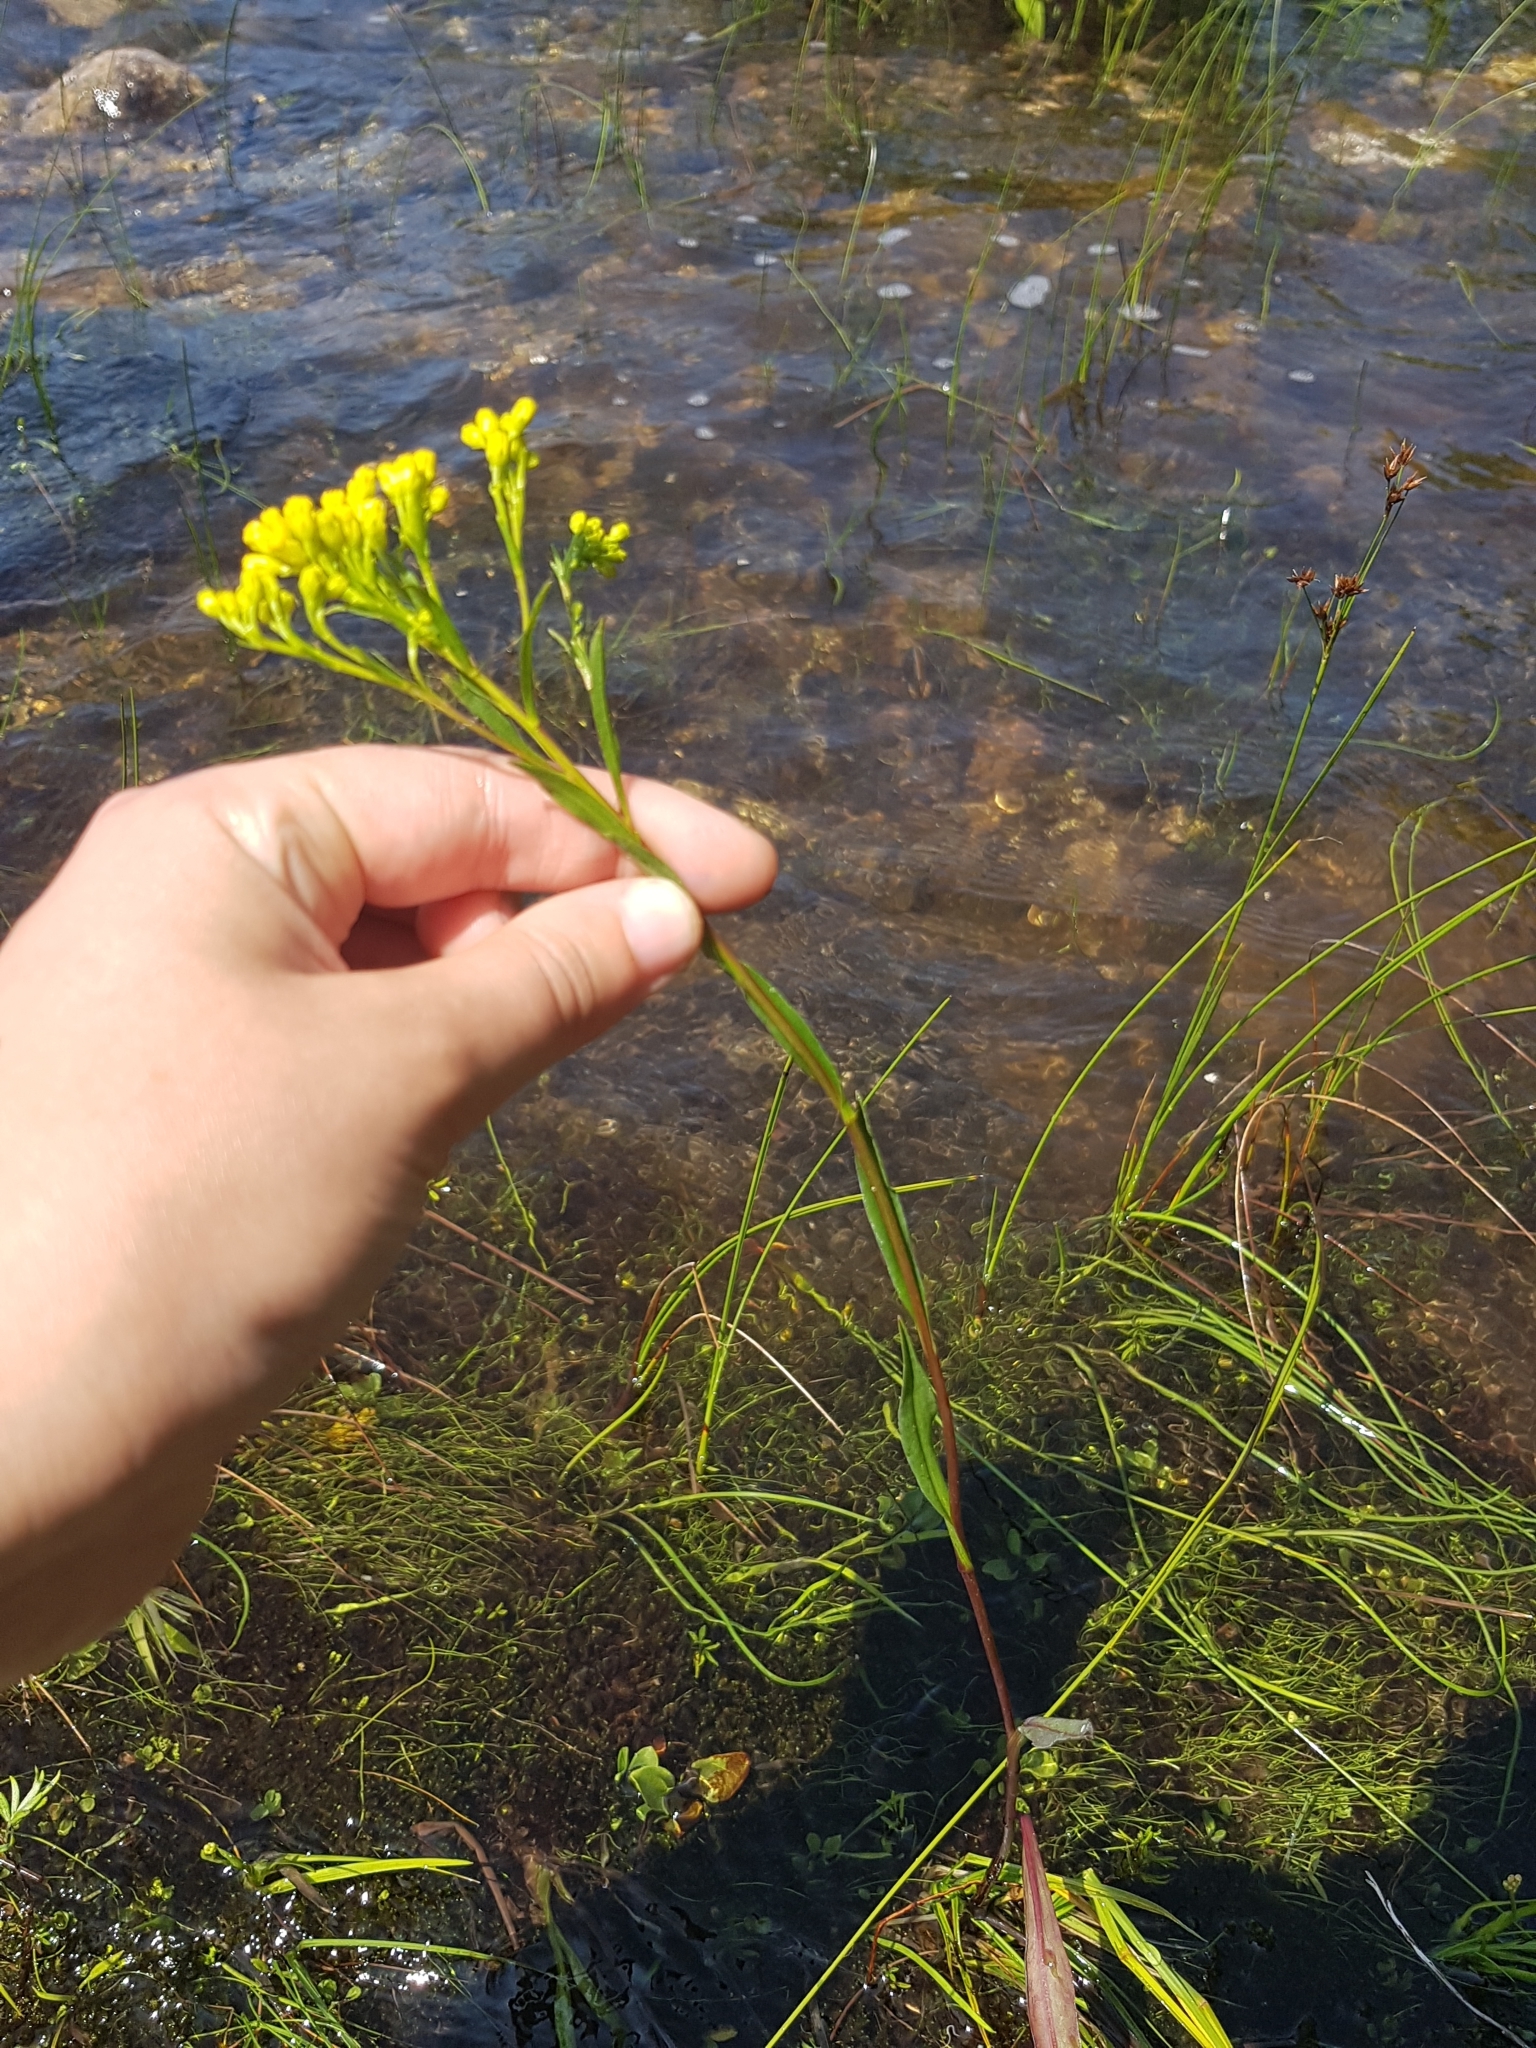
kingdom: Plantae
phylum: Tracheophyta
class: Magnoliopsida
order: Asterales
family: Asteraceae
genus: Solidago
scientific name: Solidago ohioensis
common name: Ohio goldenrod
